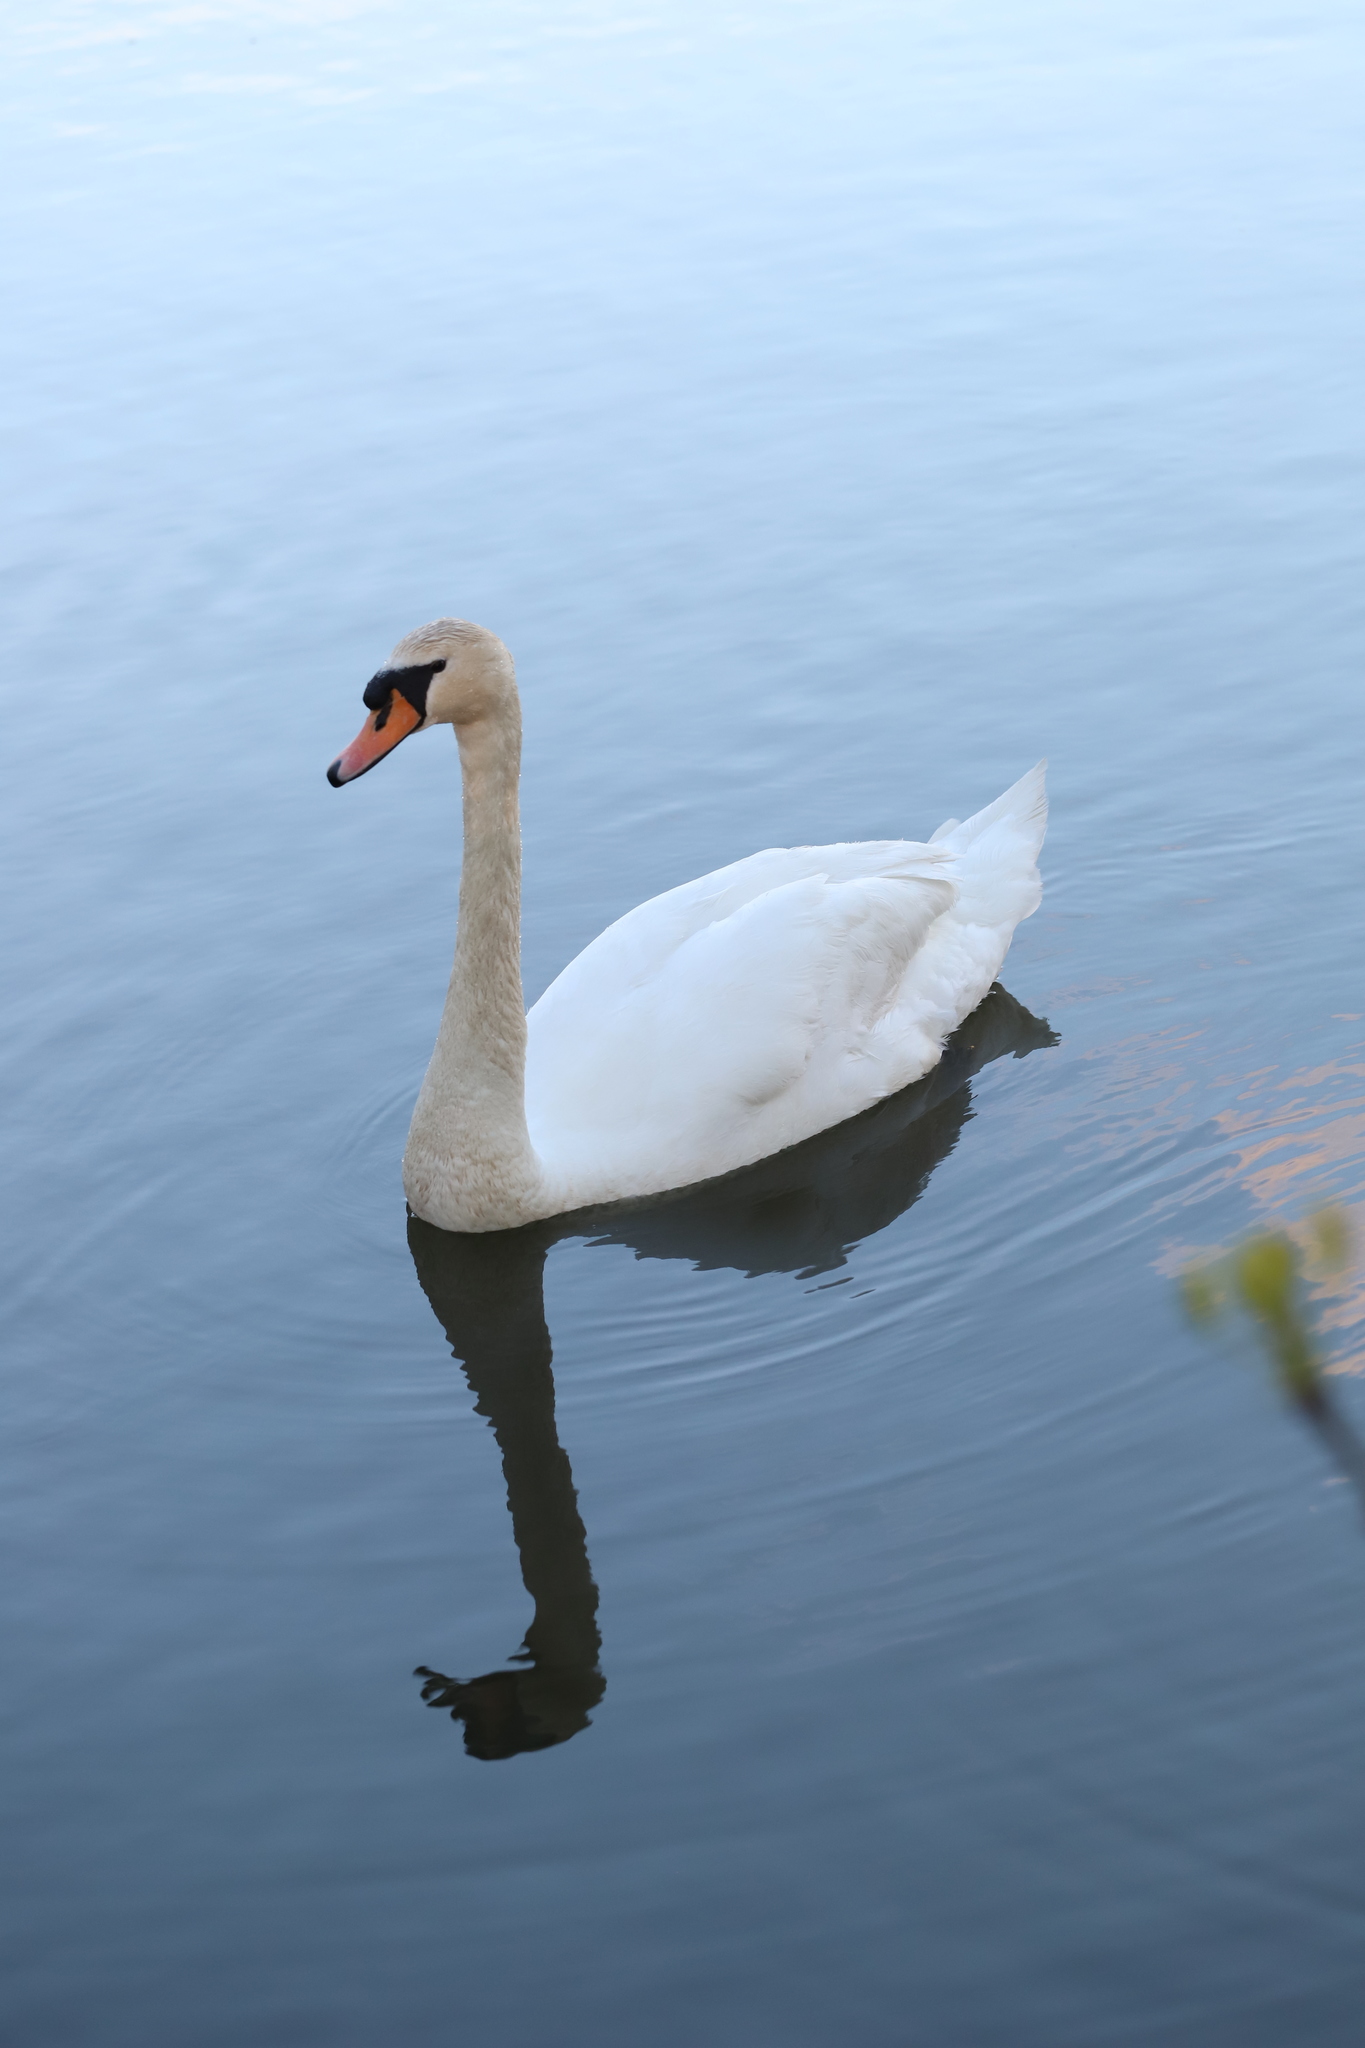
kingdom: Animalia
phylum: Chordata
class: Aves
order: Anseriformes
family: Anatidae
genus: Cygnus
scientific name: Cygnus olor
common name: Mute swan
